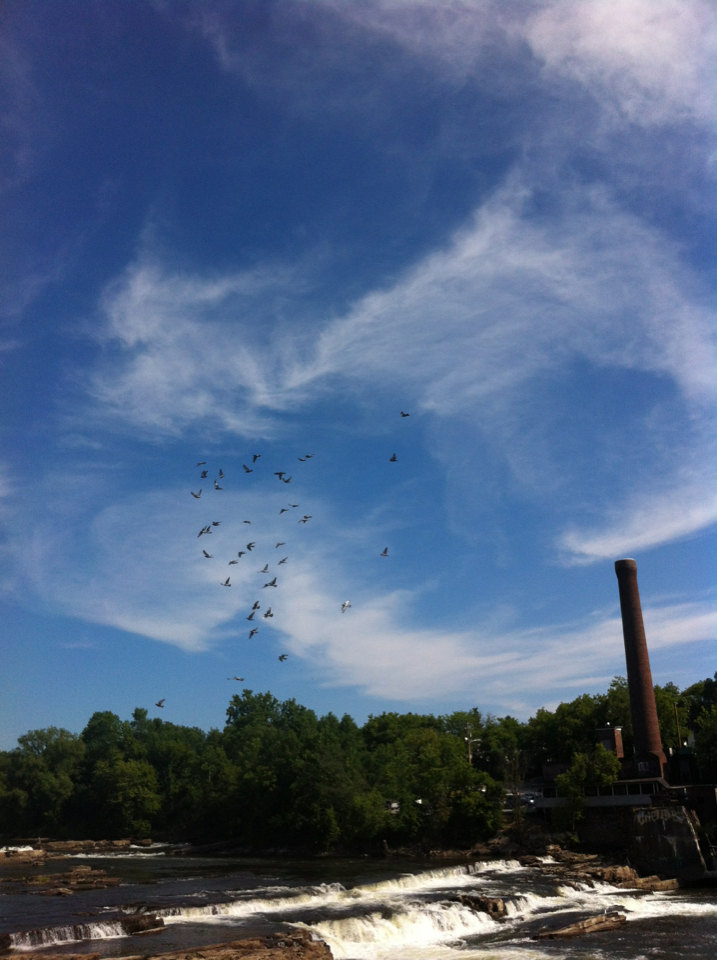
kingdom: Animalia
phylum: Chordata
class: Aves
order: Columbiformes
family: Columbidae
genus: Columba
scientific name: Columba livia
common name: Rock pigeon
